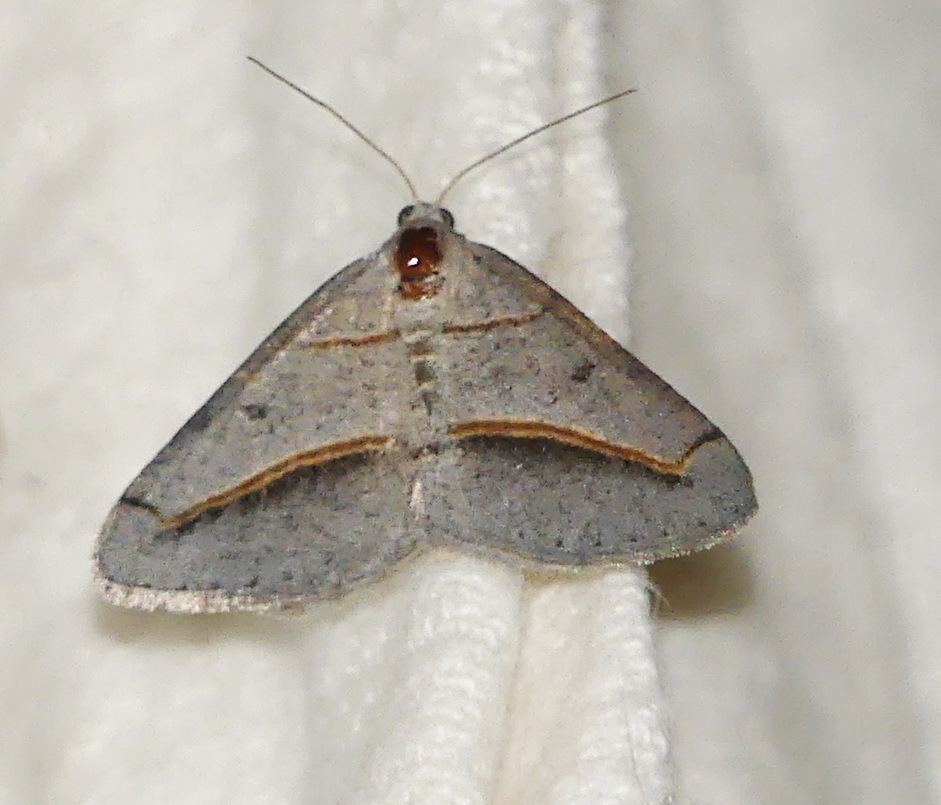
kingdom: Animalia
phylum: Arthropoda
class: Insecta
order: Lepidoptera
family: Geometridae
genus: Digrammia
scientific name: Digrammia mellistrigata
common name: Yellow-lined angle
